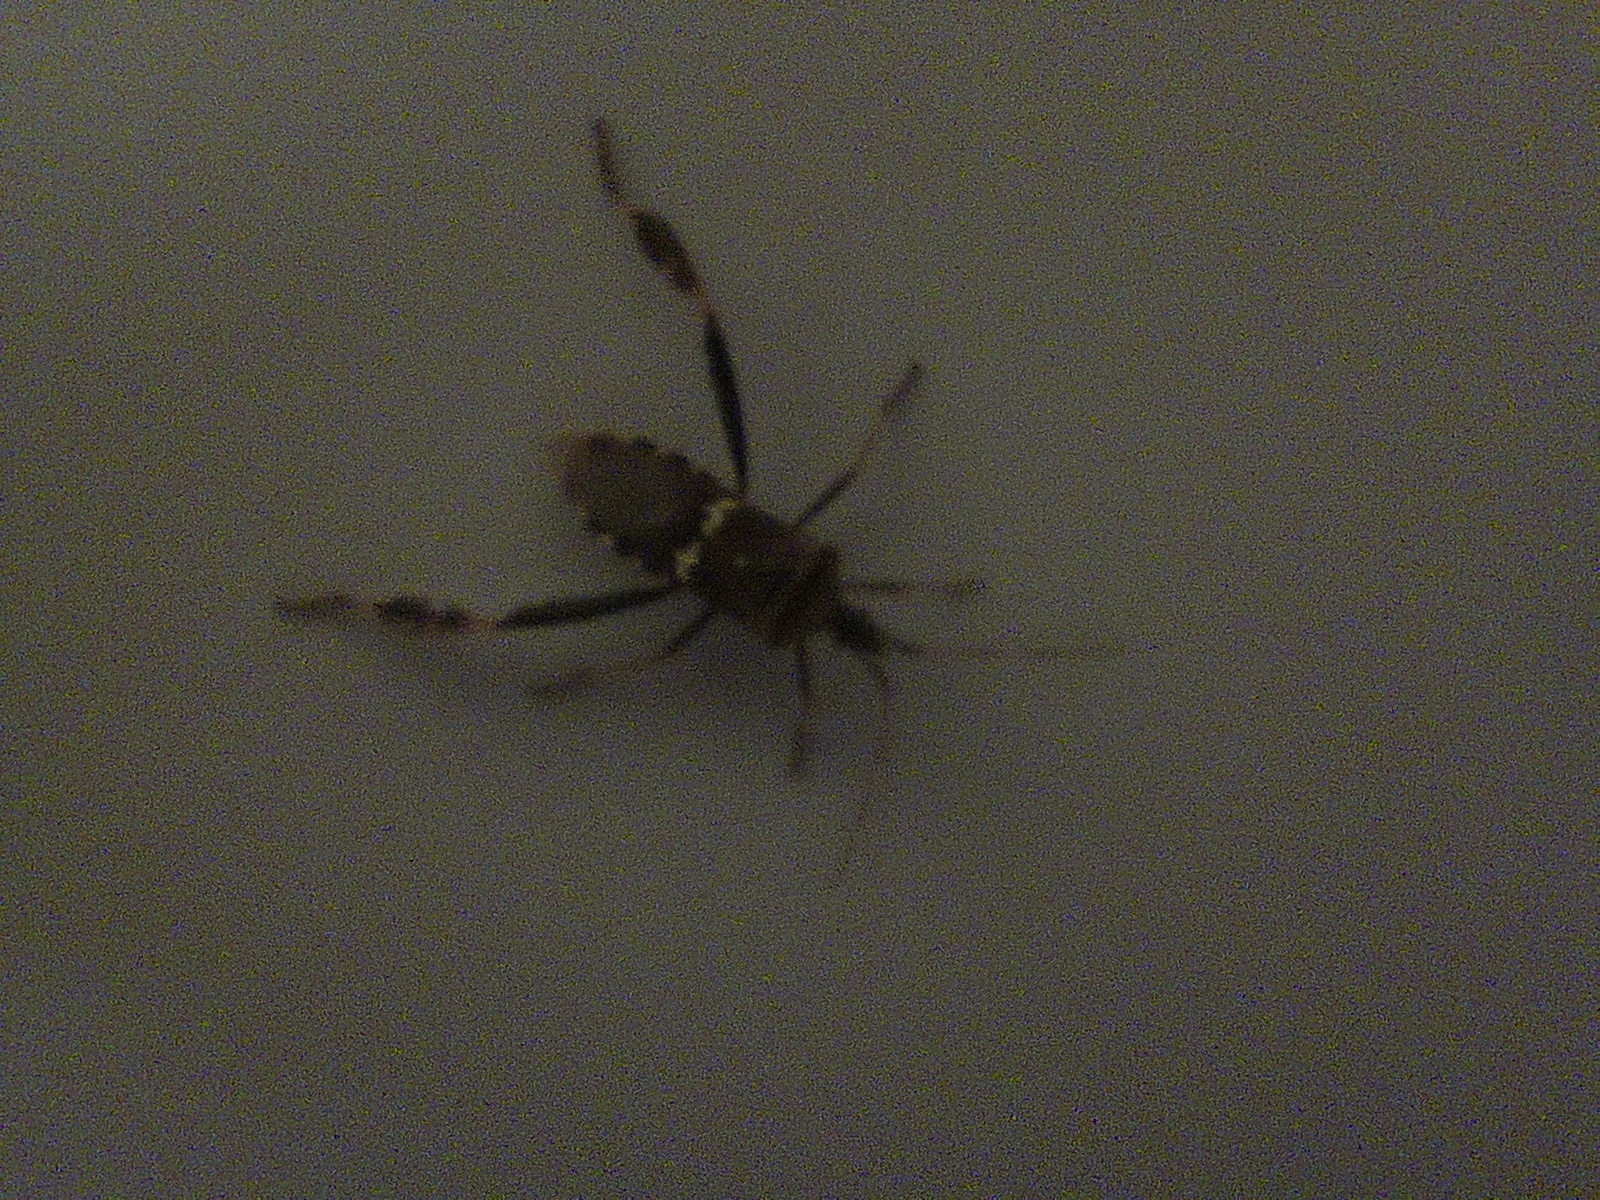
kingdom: Animalia
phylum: Arthropoda
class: Insecta
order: Hemiptera
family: Coreidae
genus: Leptoglossus
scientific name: Leptoglossus clypealis
